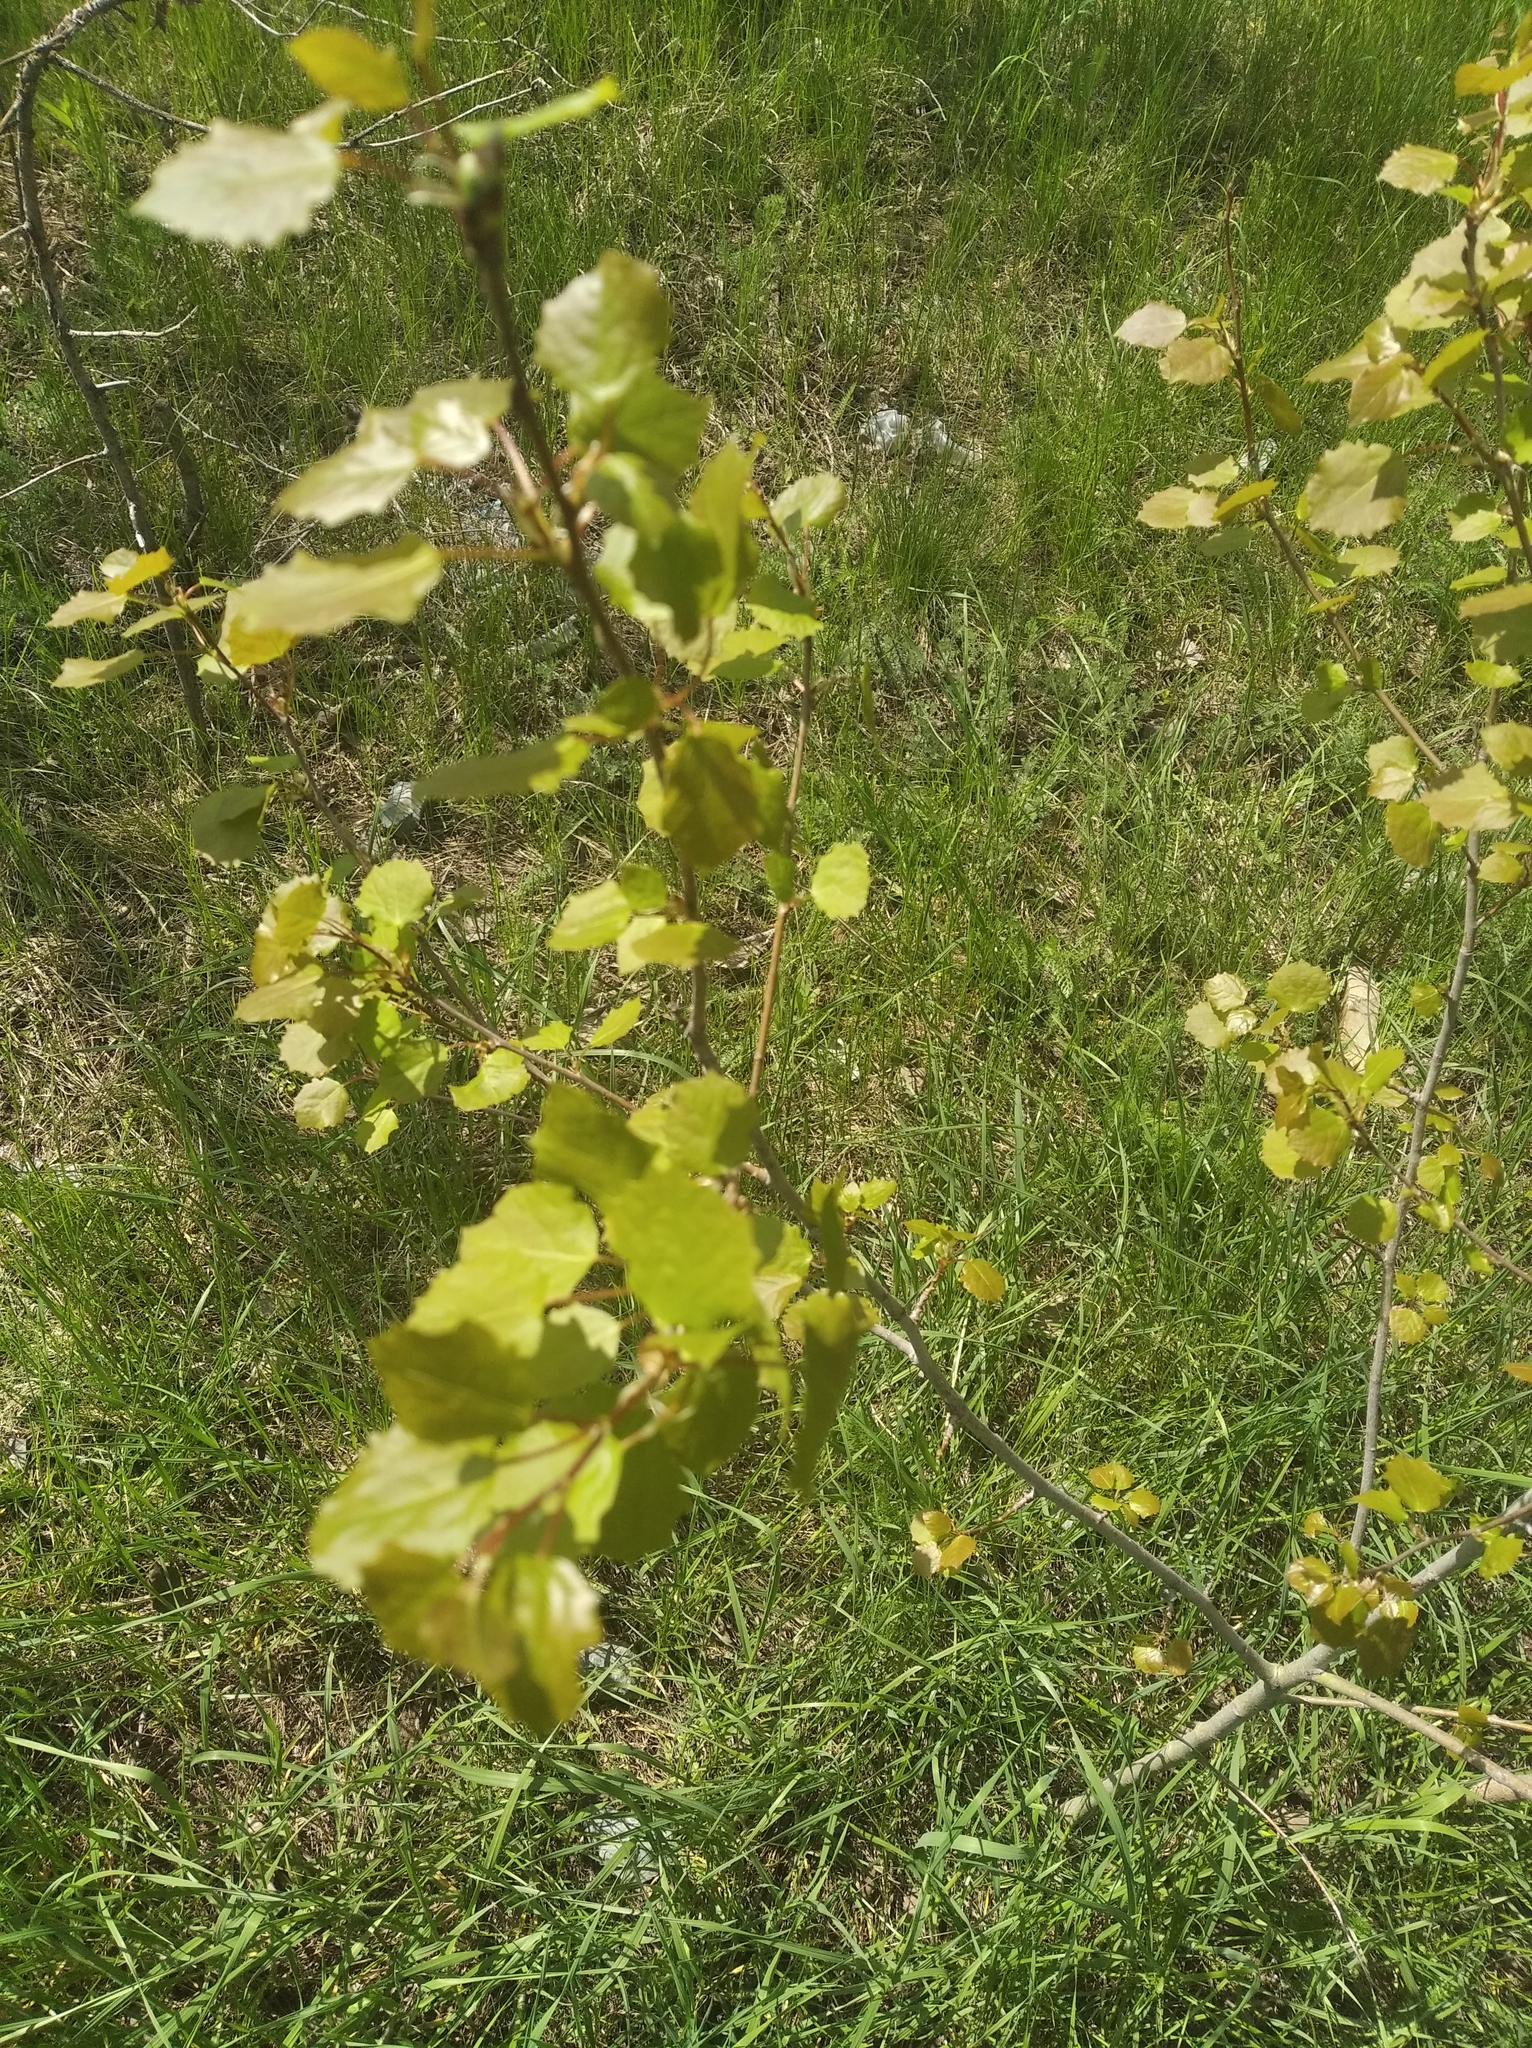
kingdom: Plantae
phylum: Tracheophyta
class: Magnoliopsida
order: Malpighiales
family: Salicaceae
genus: Populus
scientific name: Populus tremula
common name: European aspen
